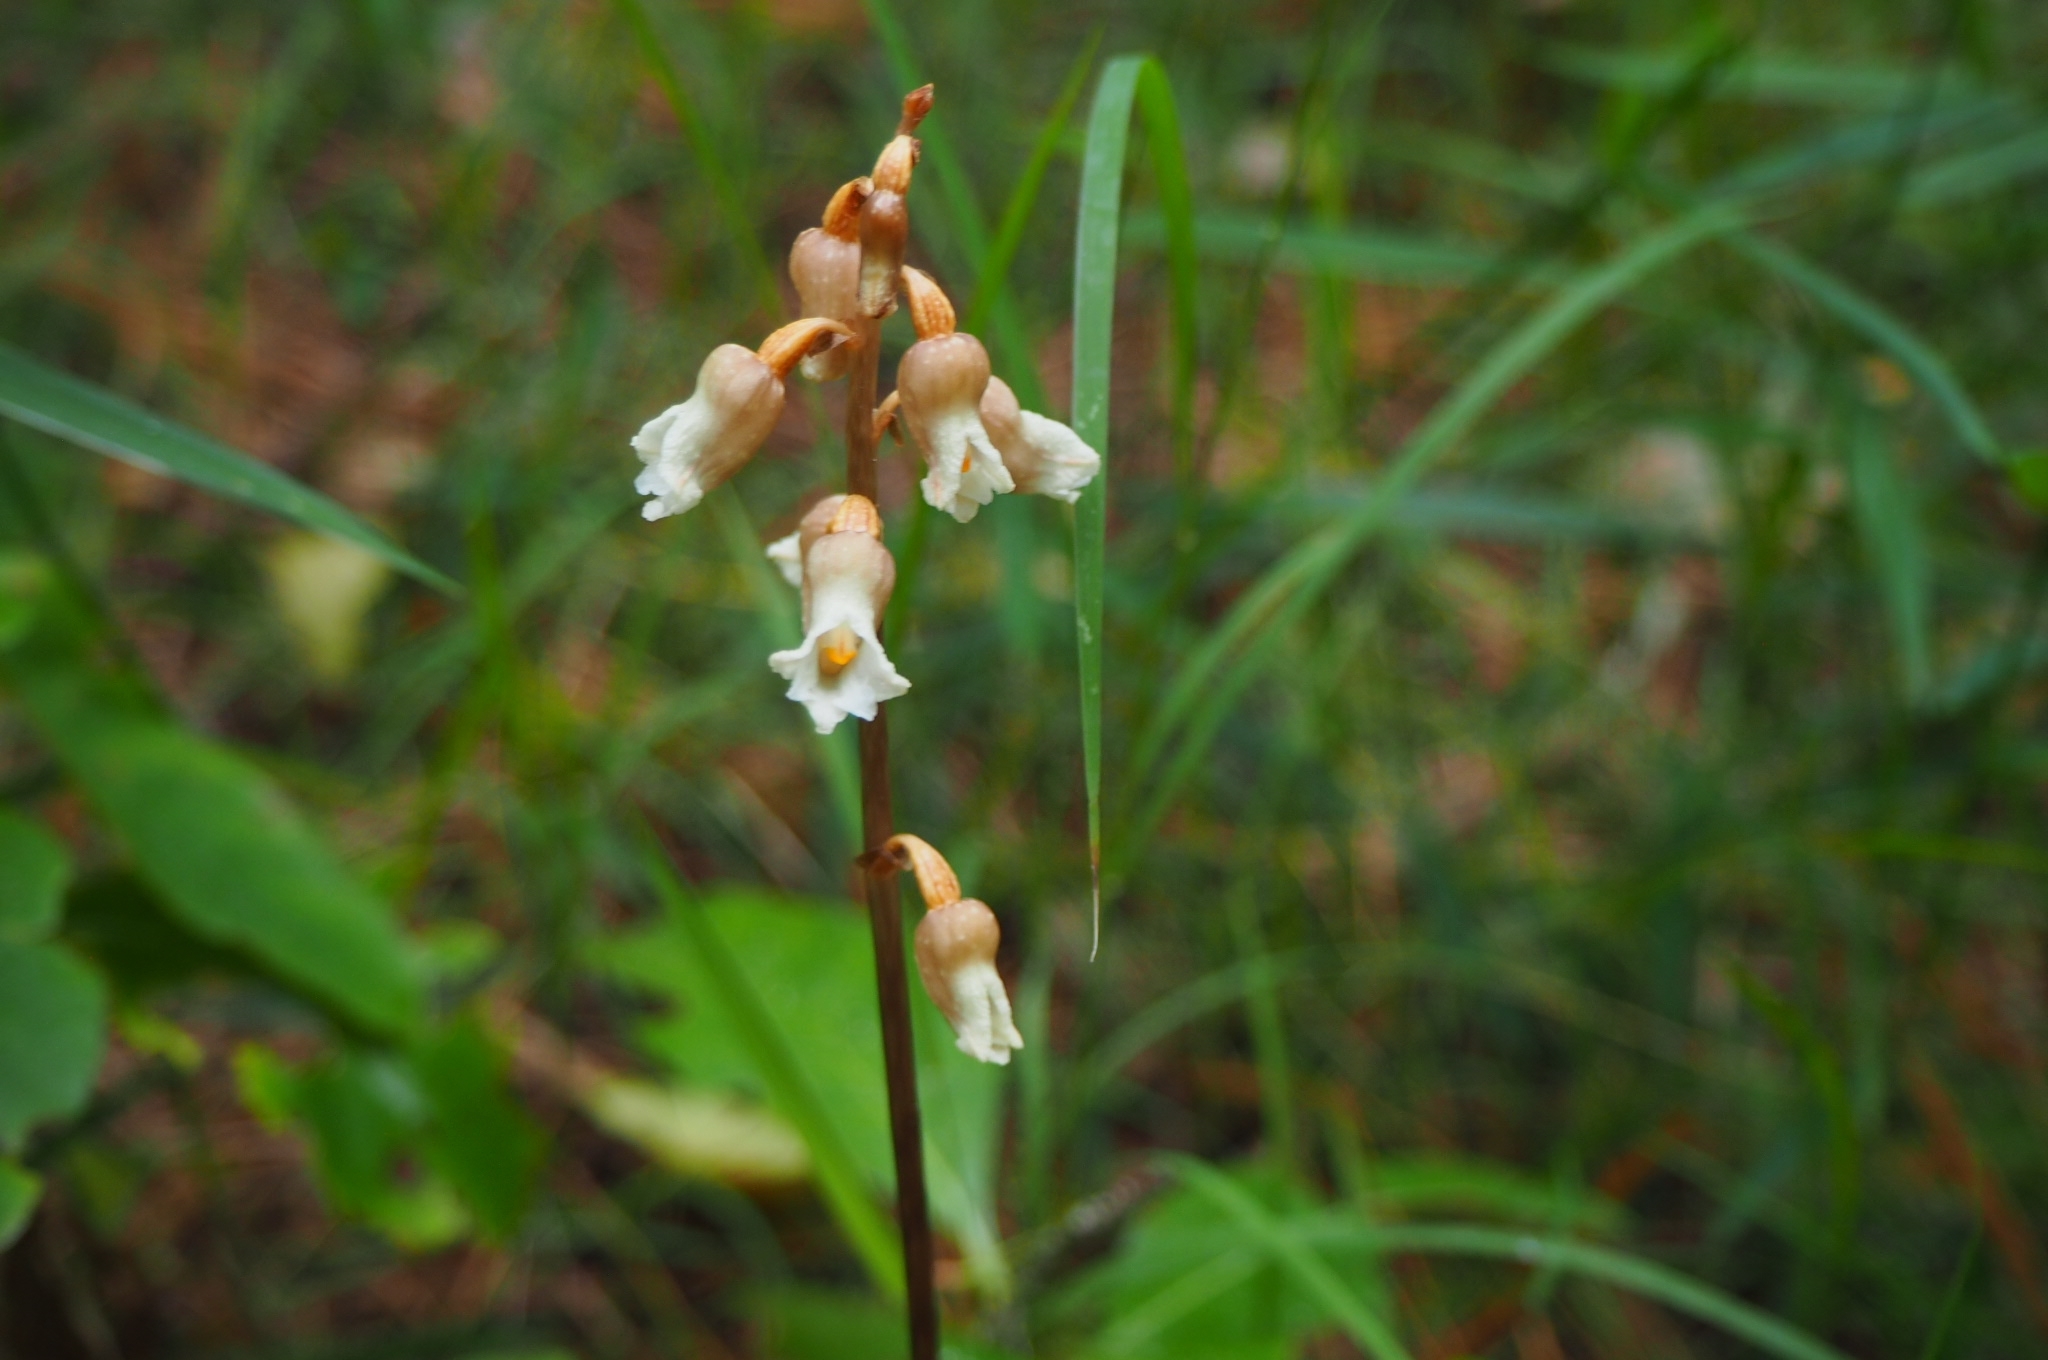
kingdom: Plantae
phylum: Tracheophyta
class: Liliopsida
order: Asparagales
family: Orchidaceae
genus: Gastrodia
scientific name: Gastrodia sesamoides
